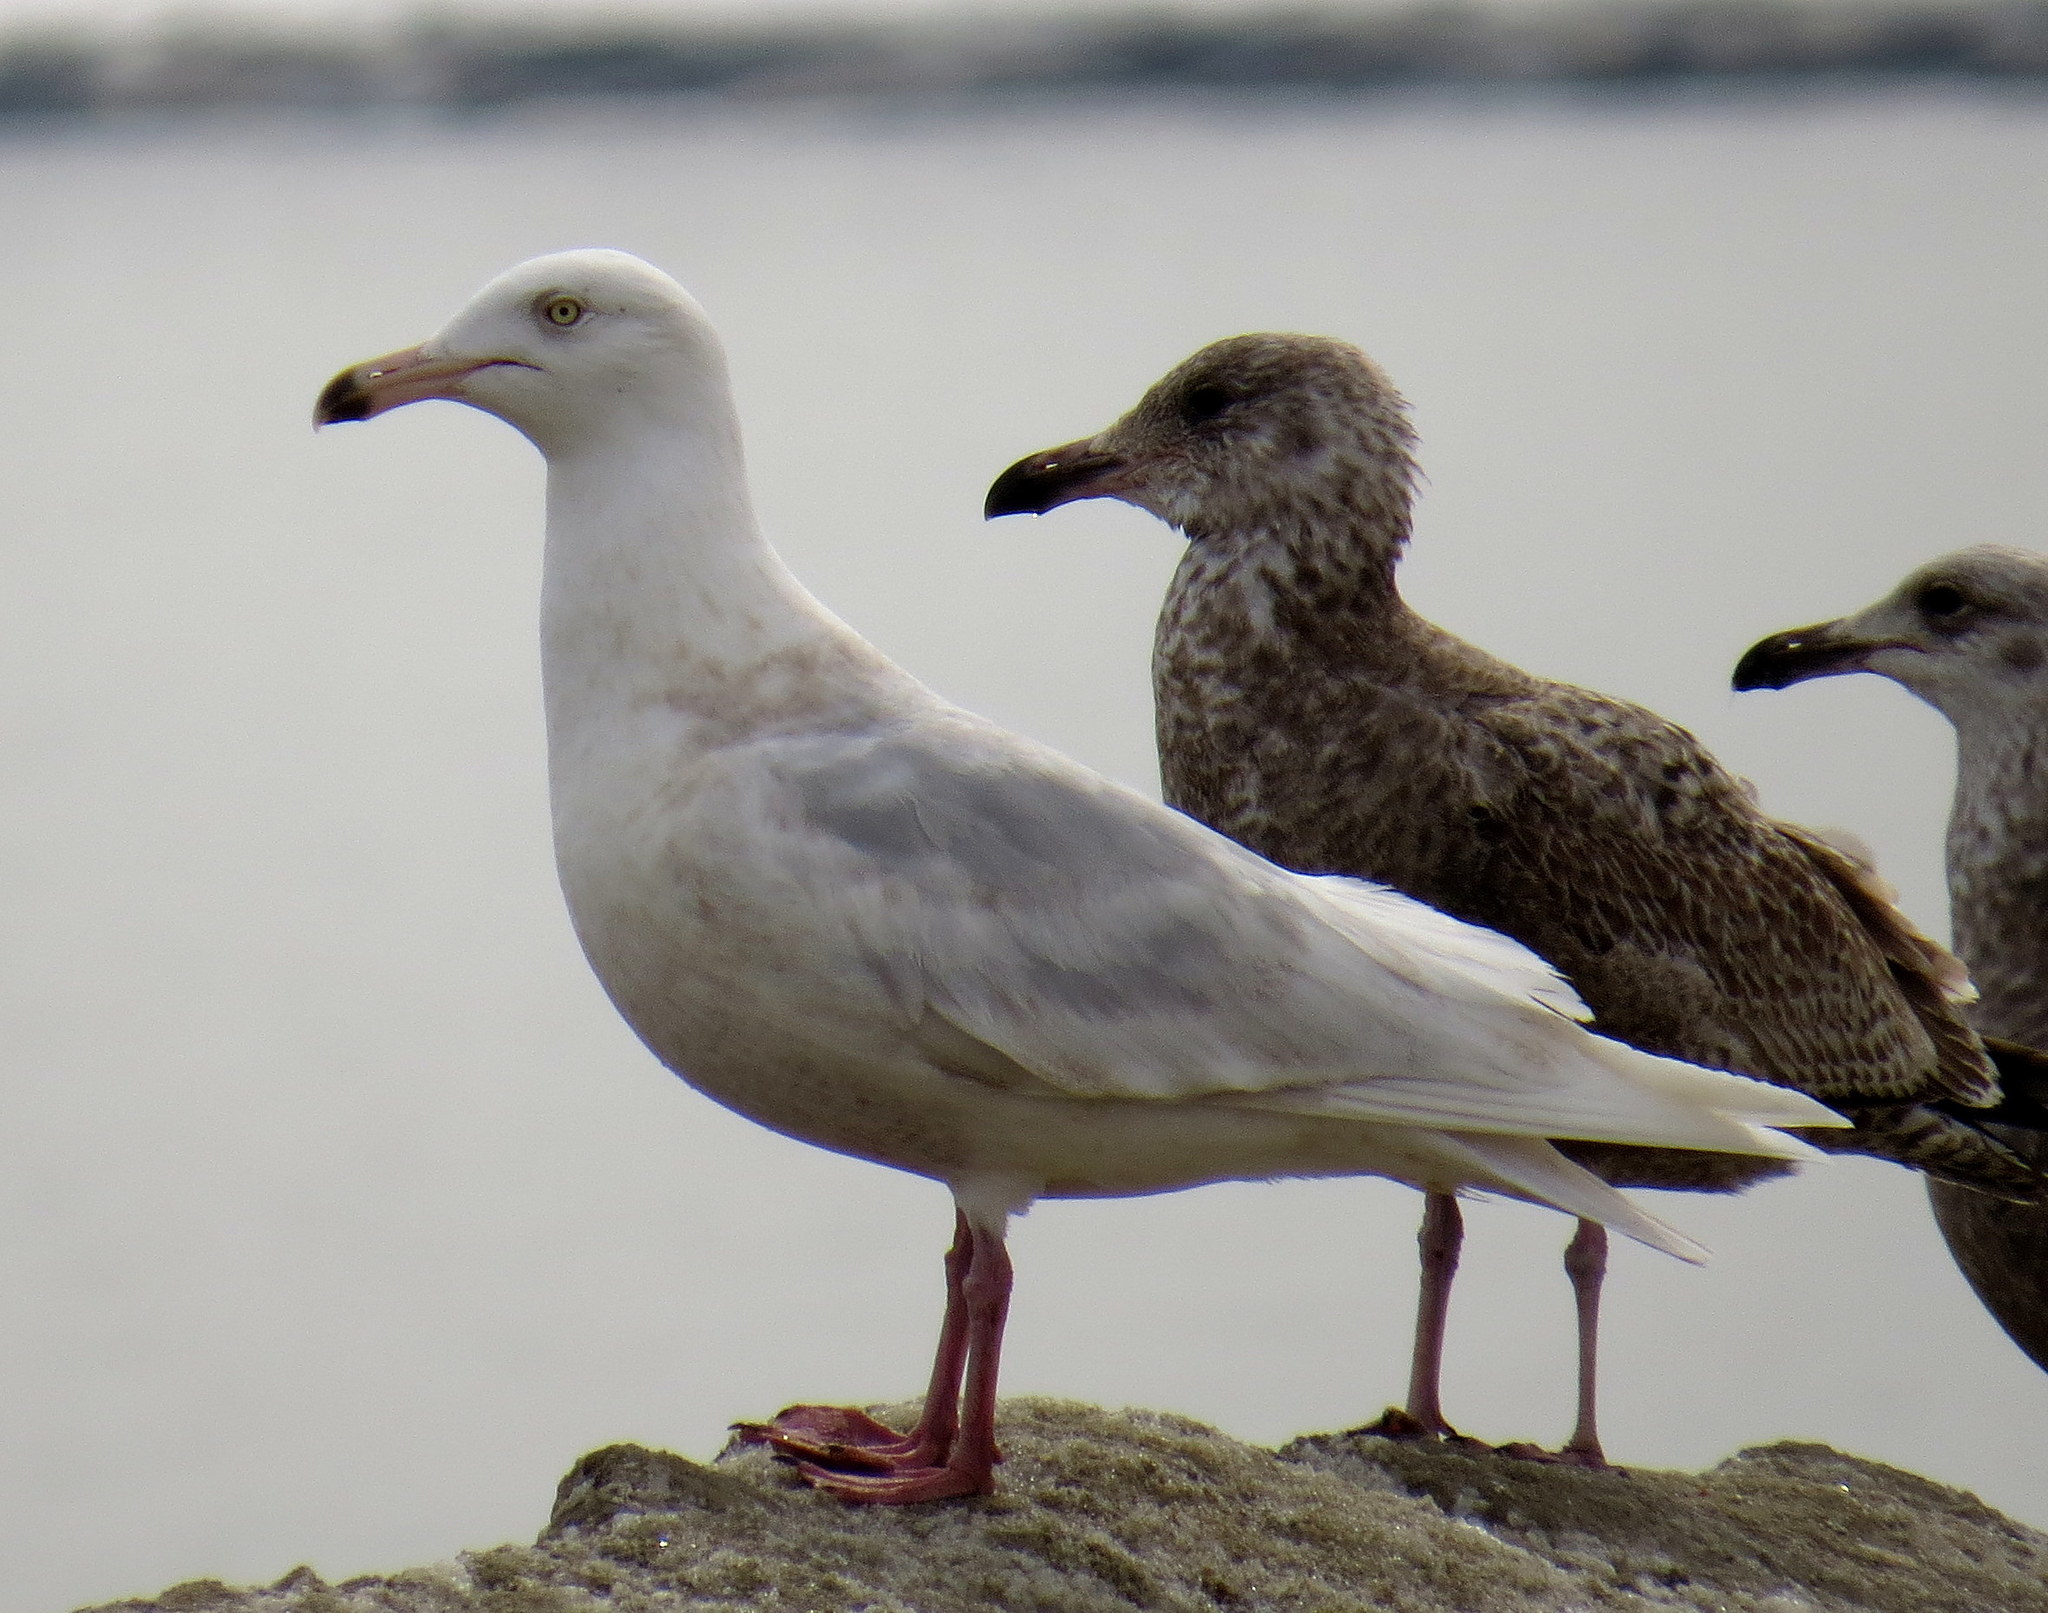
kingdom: Animalia
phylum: Chordata
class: Aves
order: Charadriiformes
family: Laridae
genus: Larus
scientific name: Larus hyperboreus
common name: Glaucous gull
